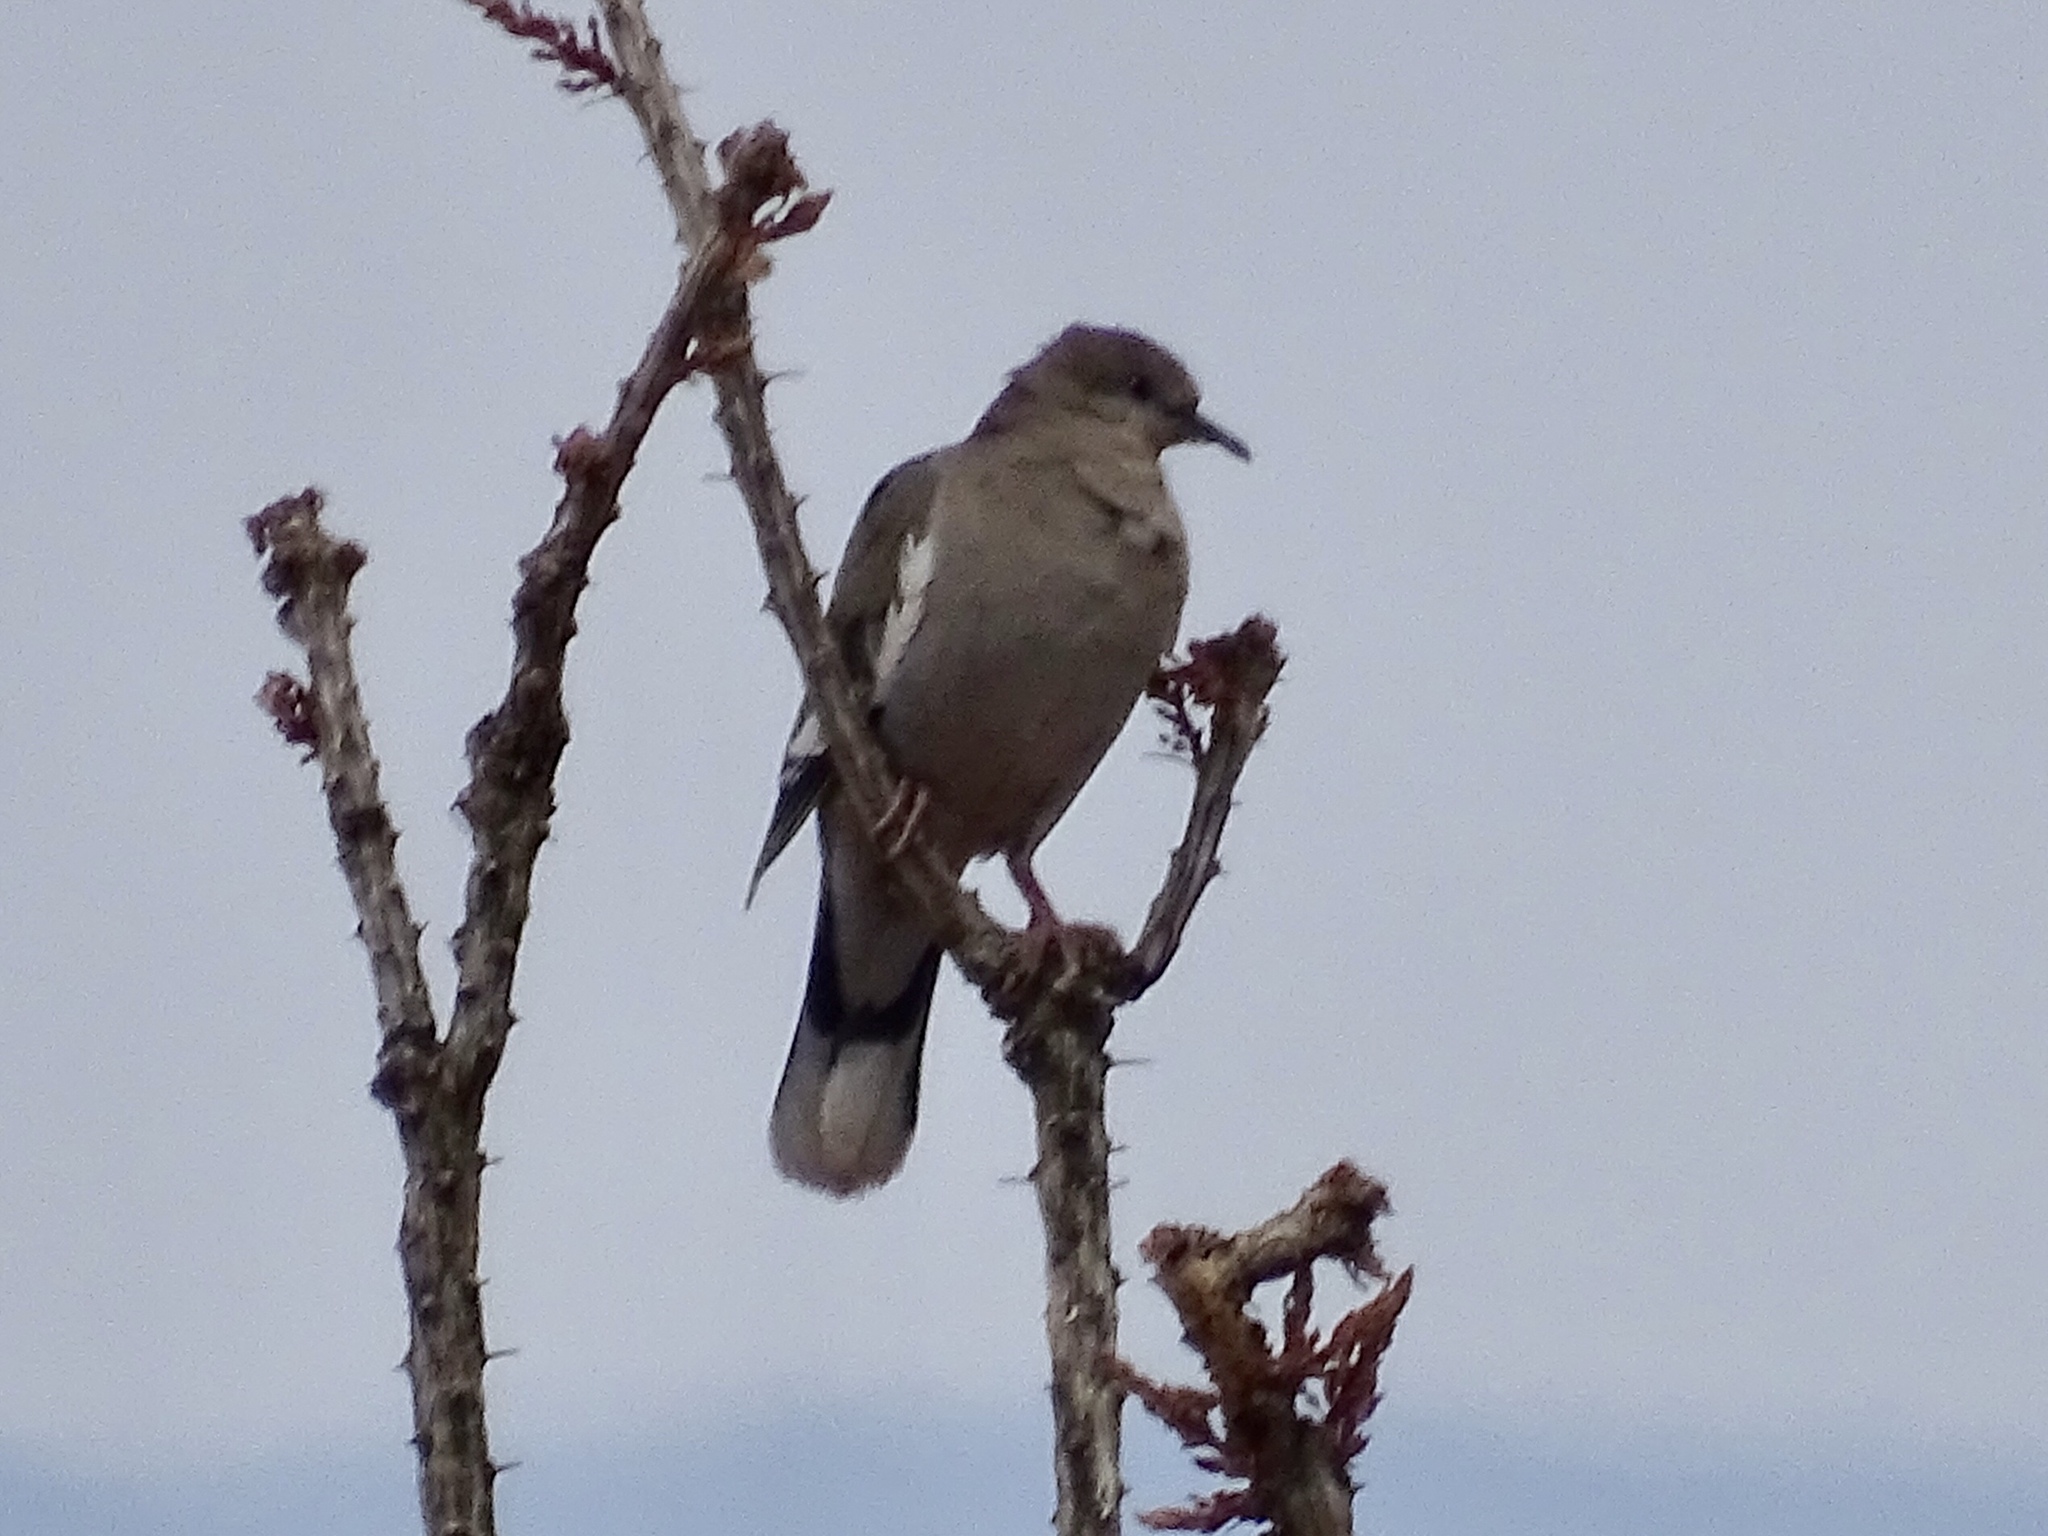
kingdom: Animalia
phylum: Chordata
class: Aves
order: Columbiformes
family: Columbidae
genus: Zenaida
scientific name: Zenaida asiatica
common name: White-winged dove
